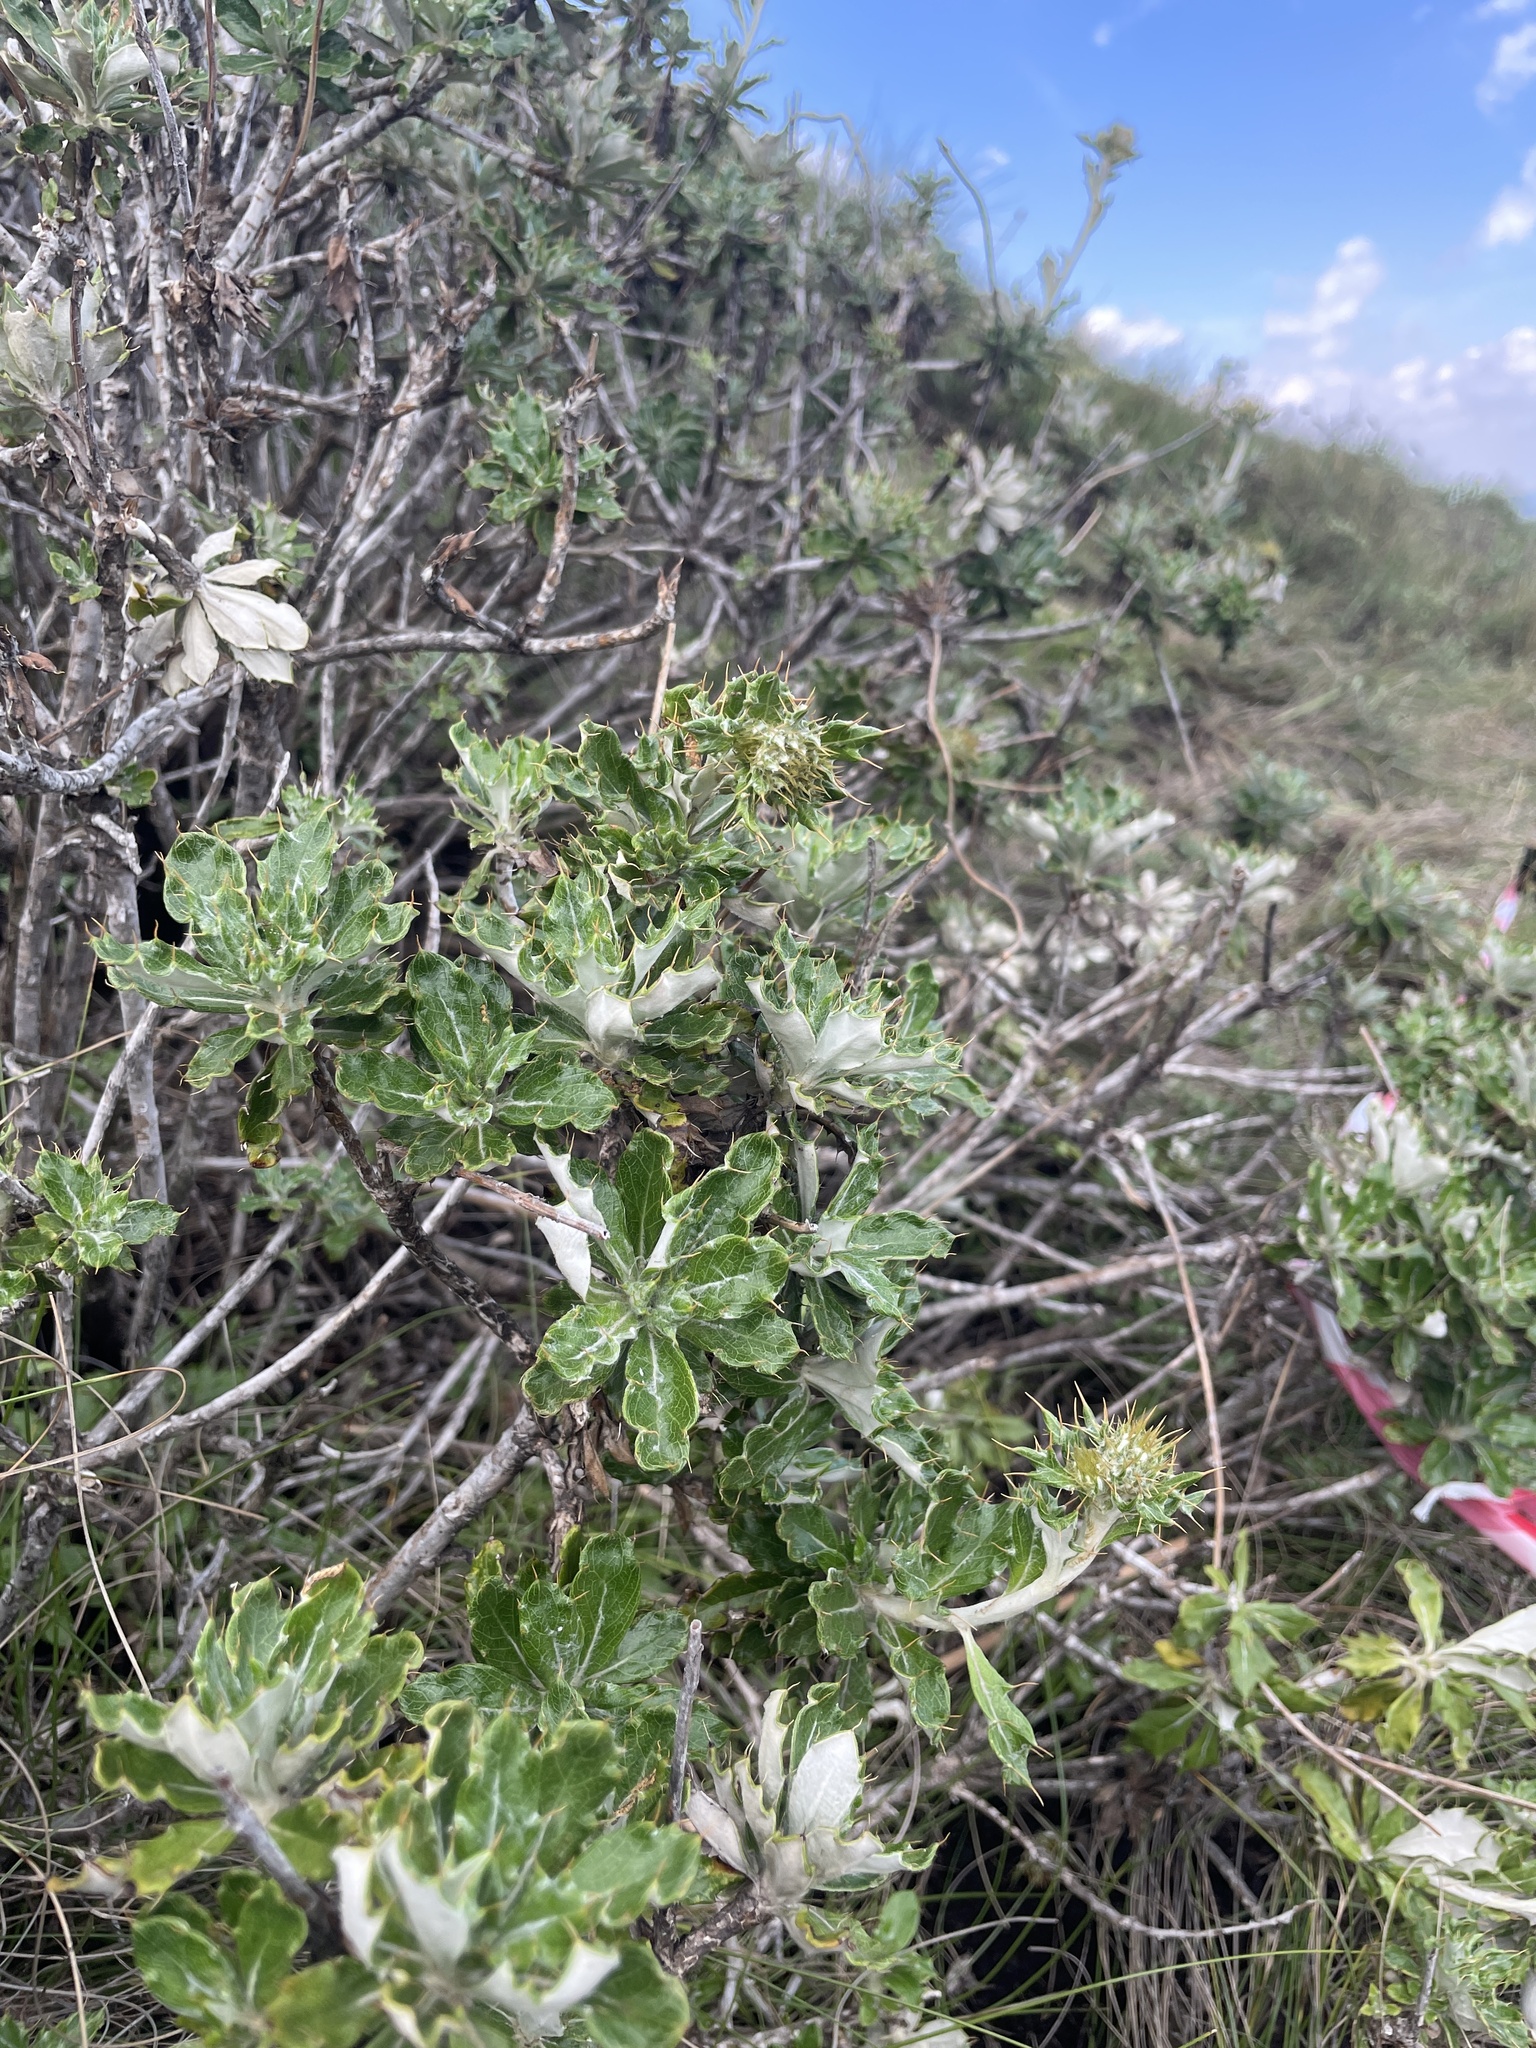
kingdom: Plantae
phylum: Tracheophyta
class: Magnoliopsida
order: Asterales
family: Asteraceae
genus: Berkheya
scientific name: Berkheya rosulata
